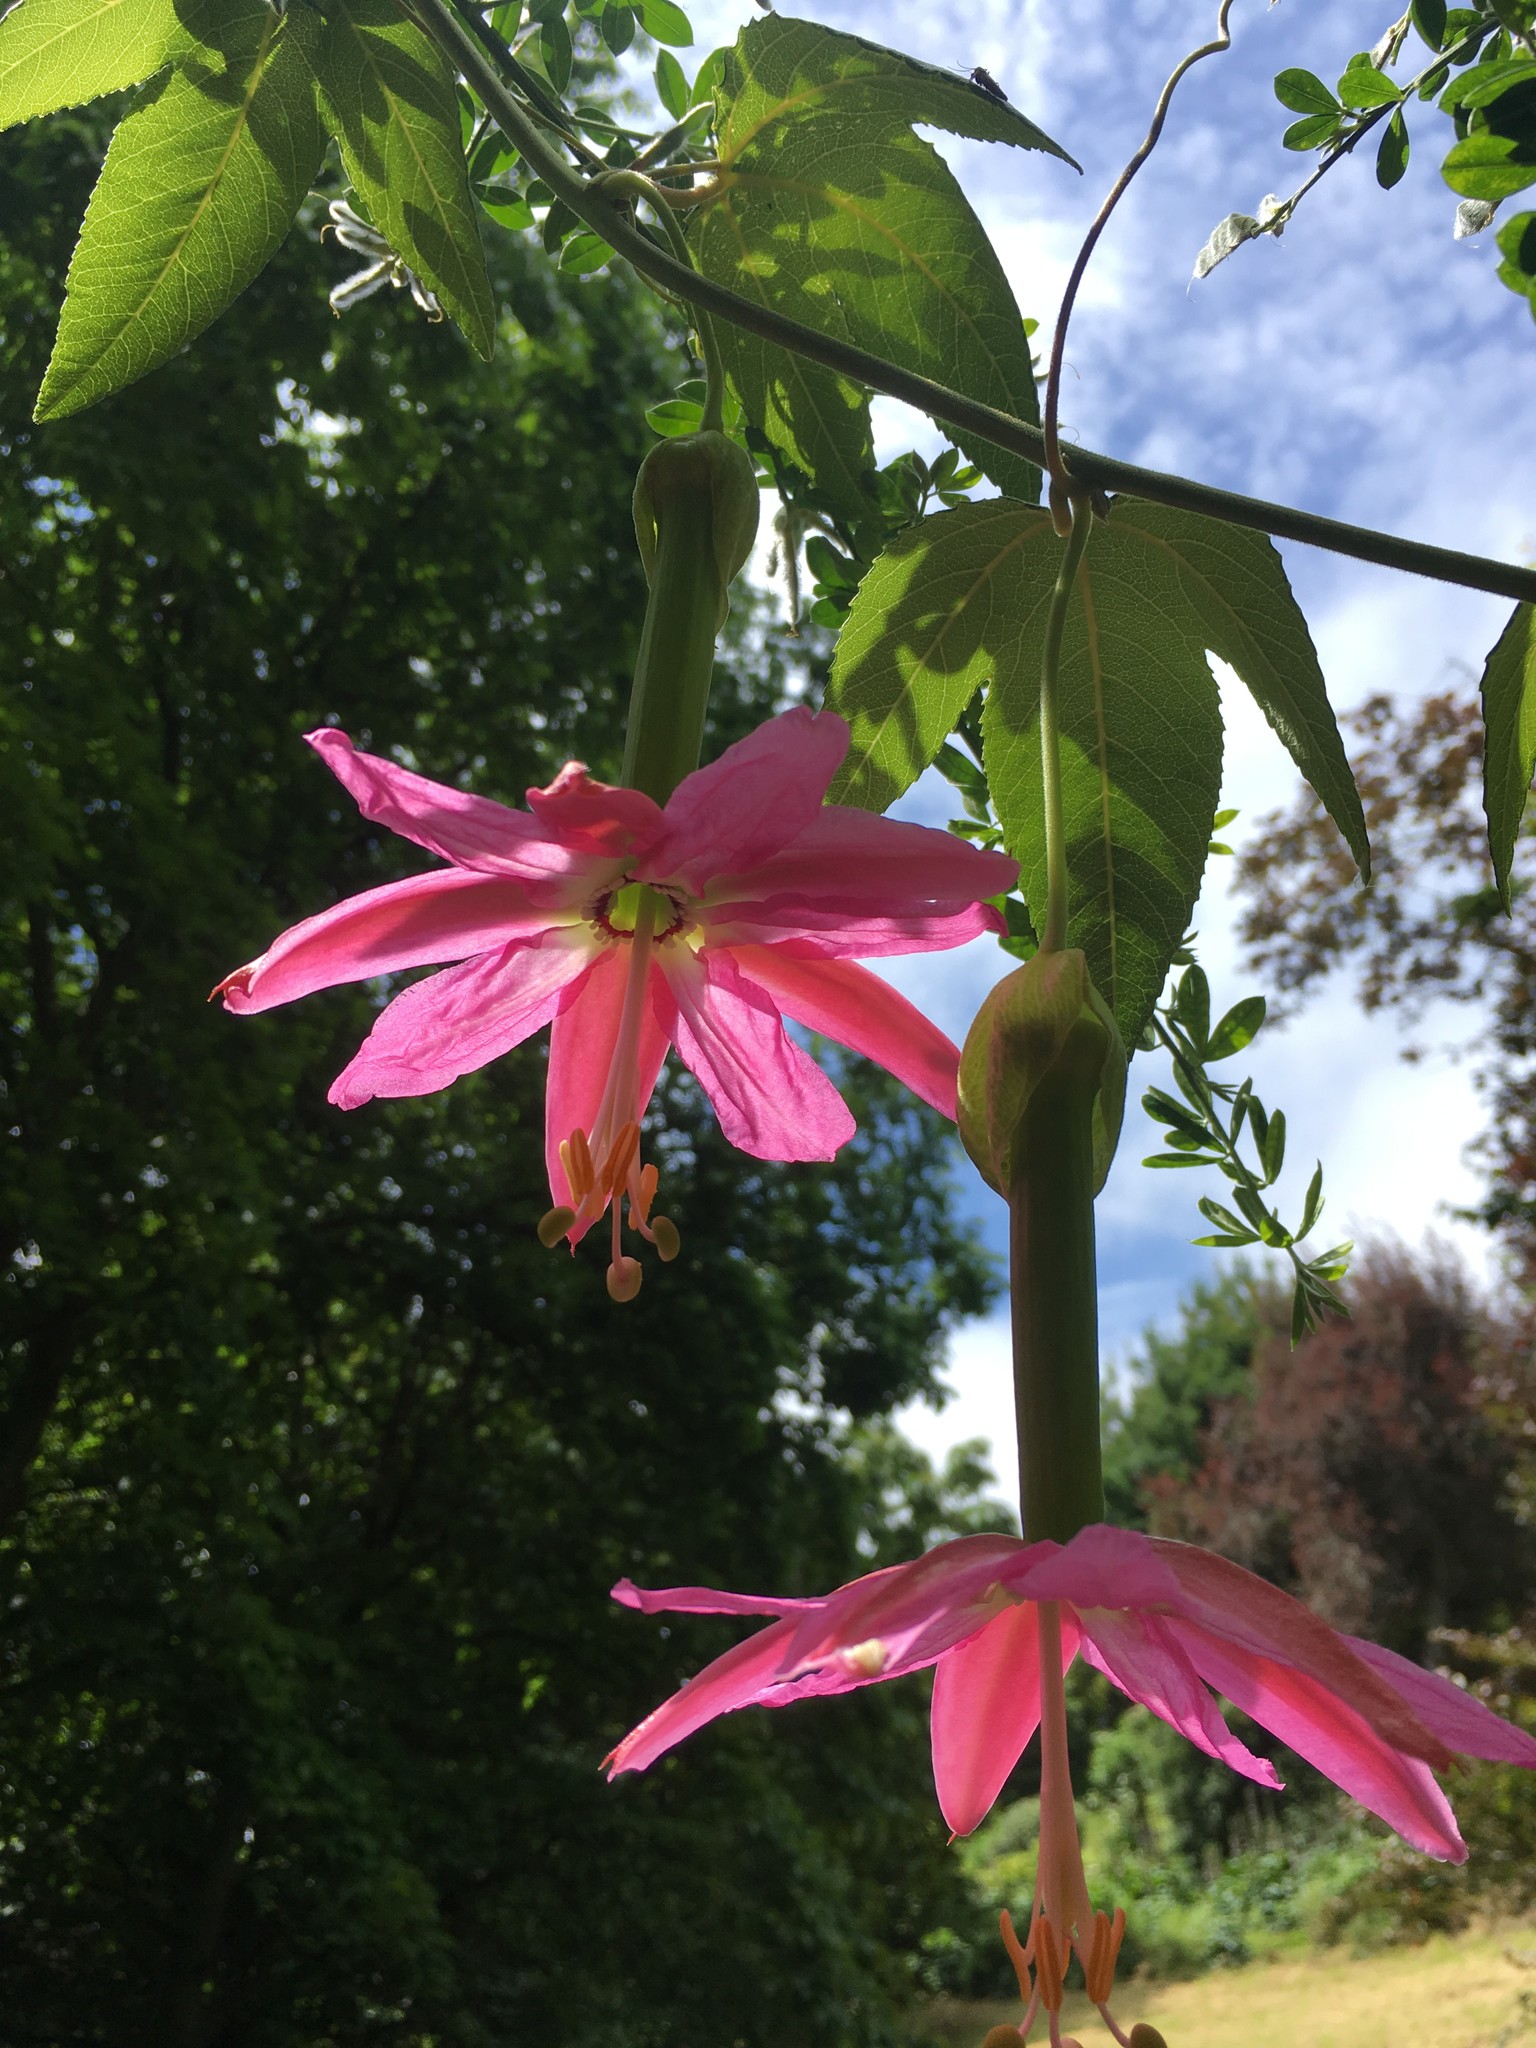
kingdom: Plantae
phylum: Tracheophyta
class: Magnoliopsida
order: Malpighiales
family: Passifloraceae
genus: Passiflora
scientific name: Passiflora tarminiana
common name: Banana poka
